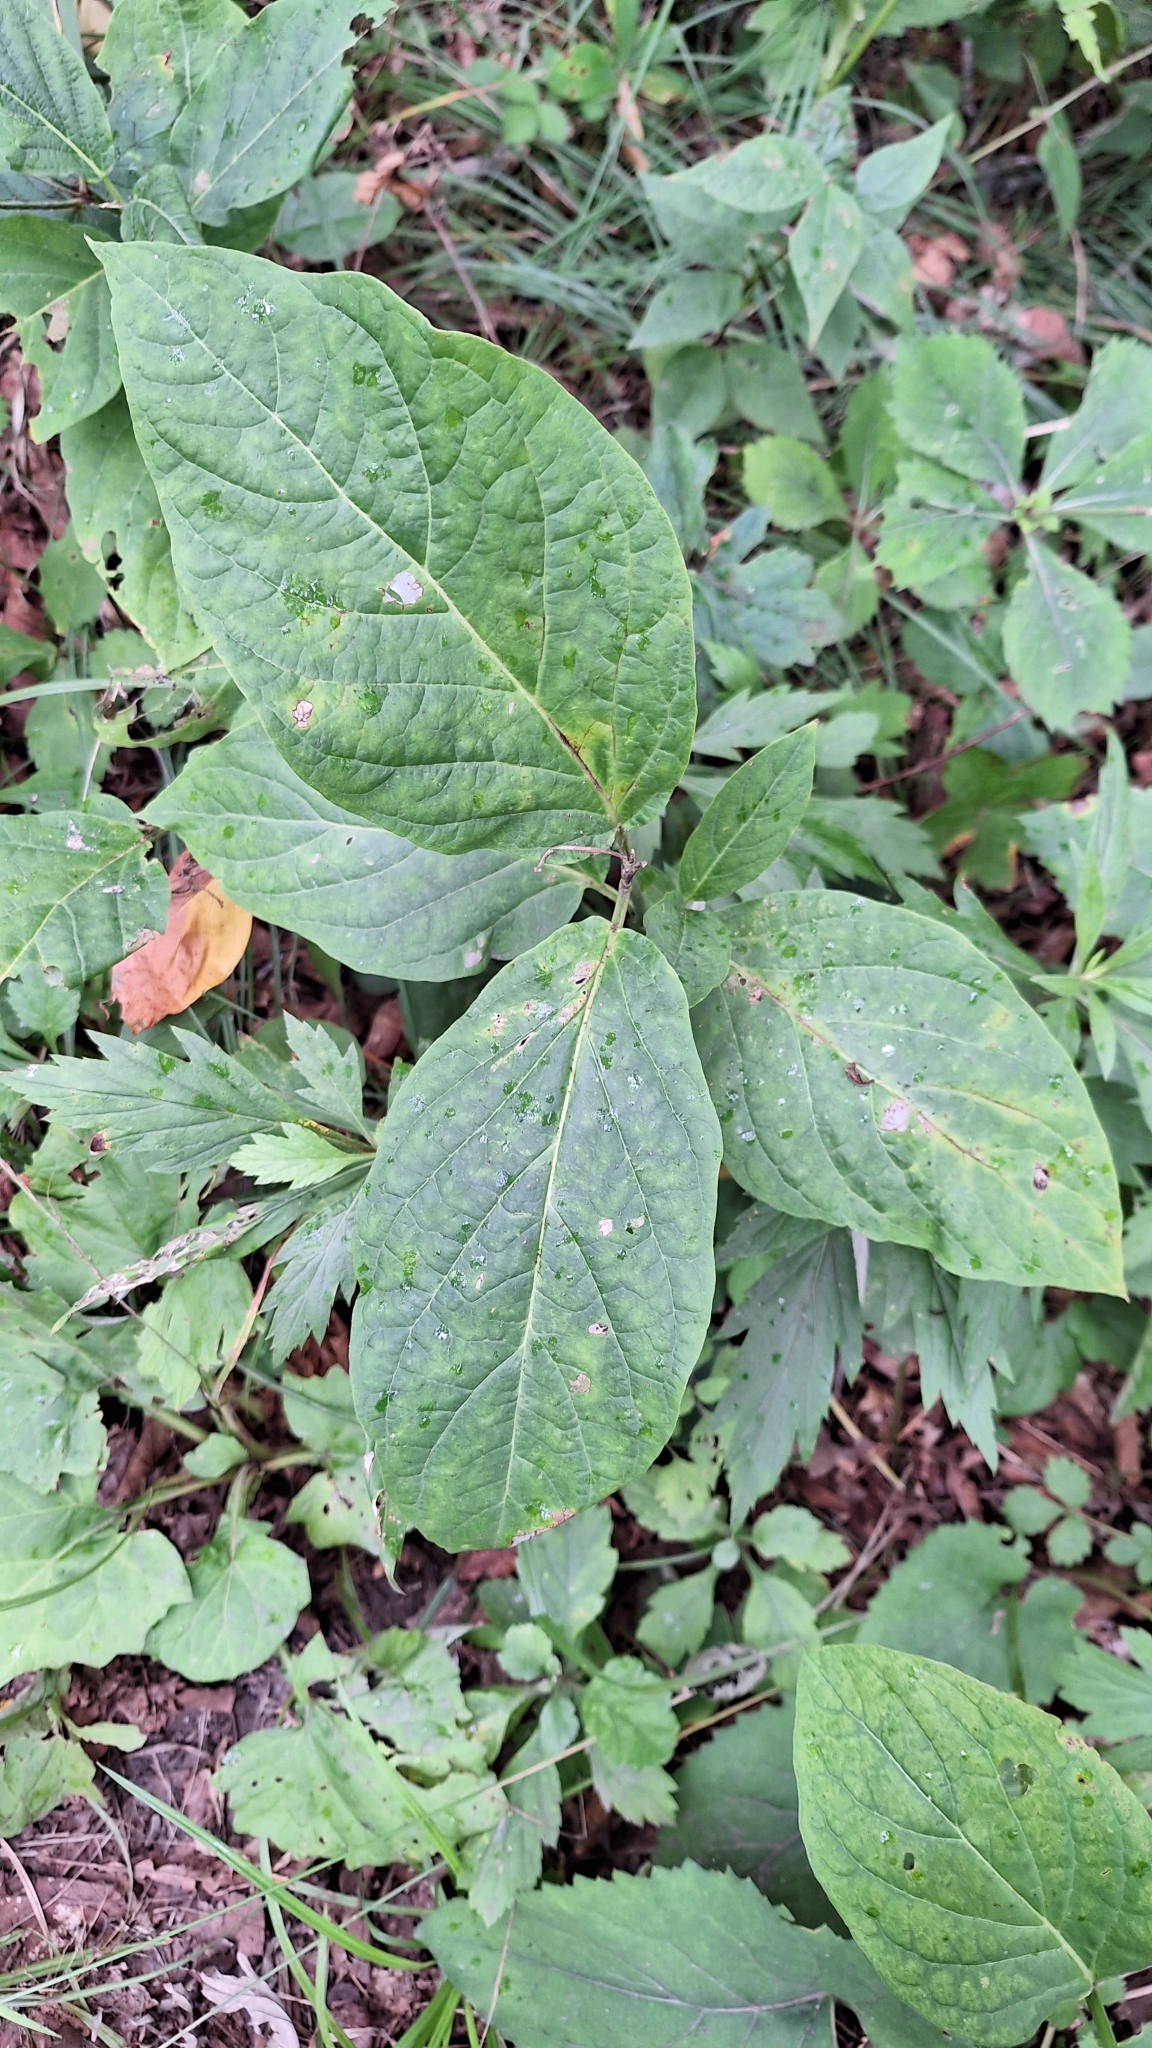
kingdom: Plantae
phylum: Tracheophyta
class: Magnoliopsida
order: Gentianales
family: Apocynaceae
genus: Vincetoxicum
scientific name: Vincetoxicum ascyrifolium
